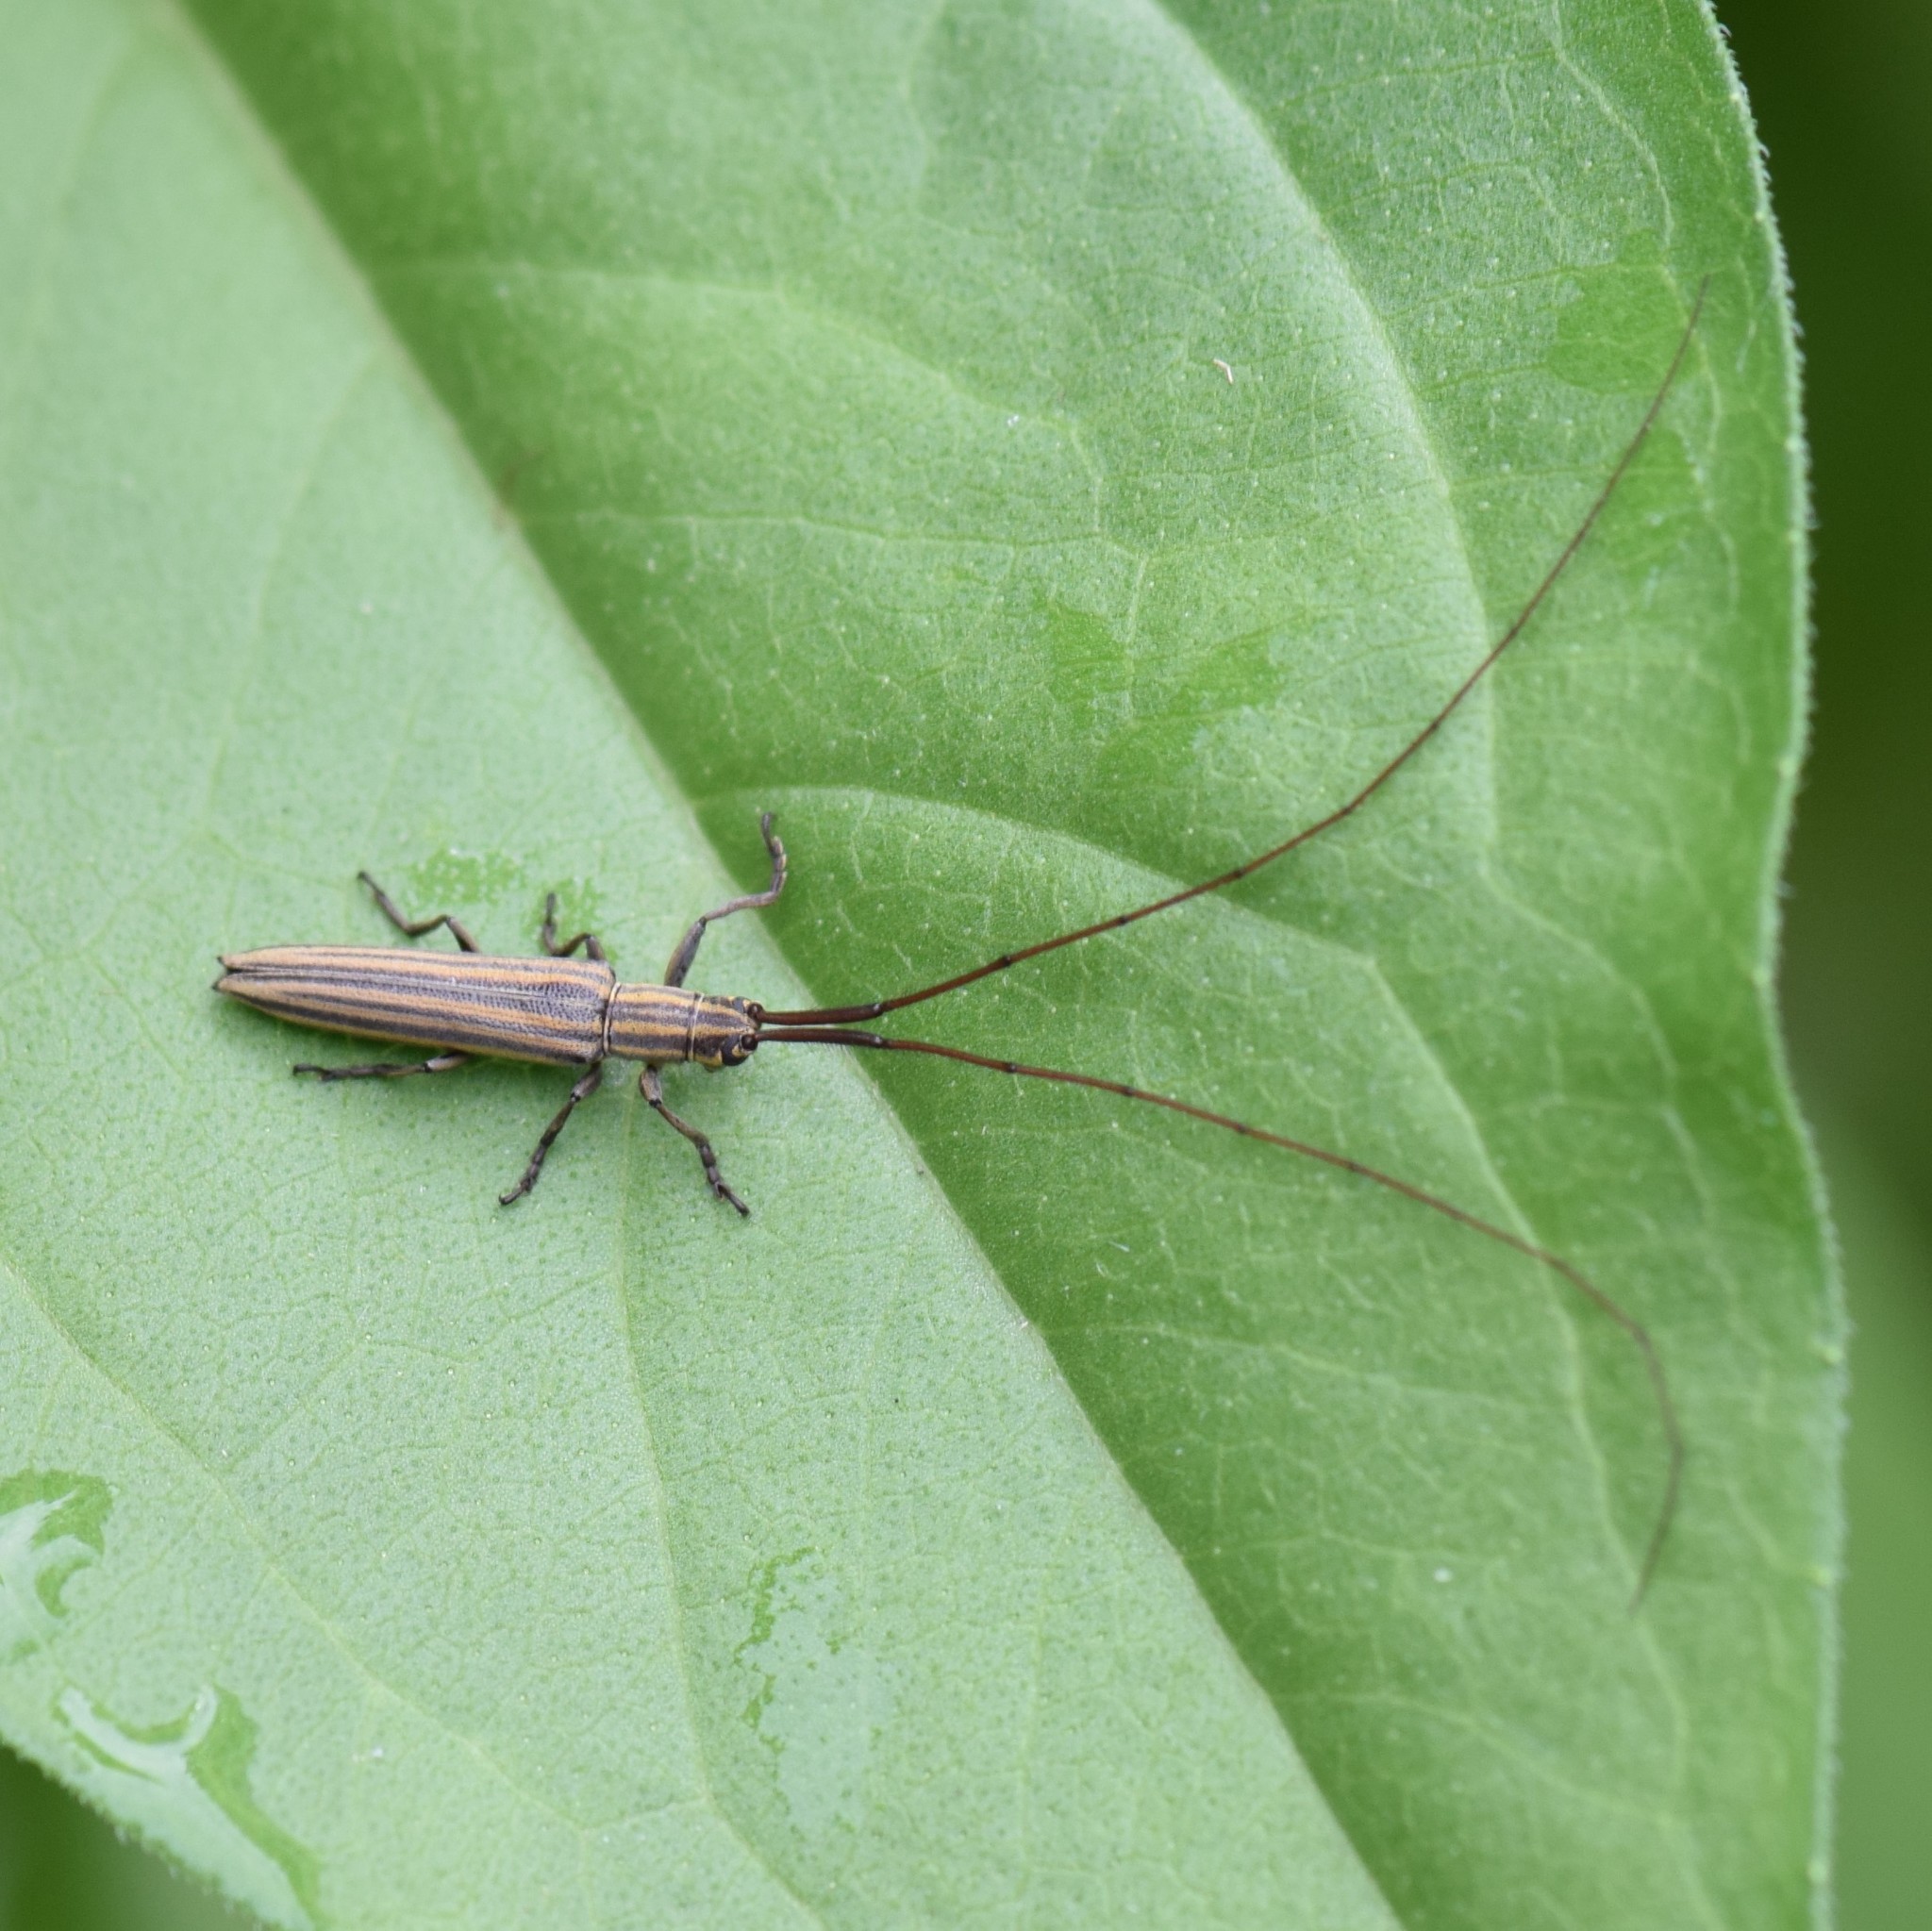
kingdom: Animalia
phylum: Arthropoda
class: Insecta
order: Coleoptera
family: Cerambycidae
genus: Hippopsis
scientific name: Hippopsis
